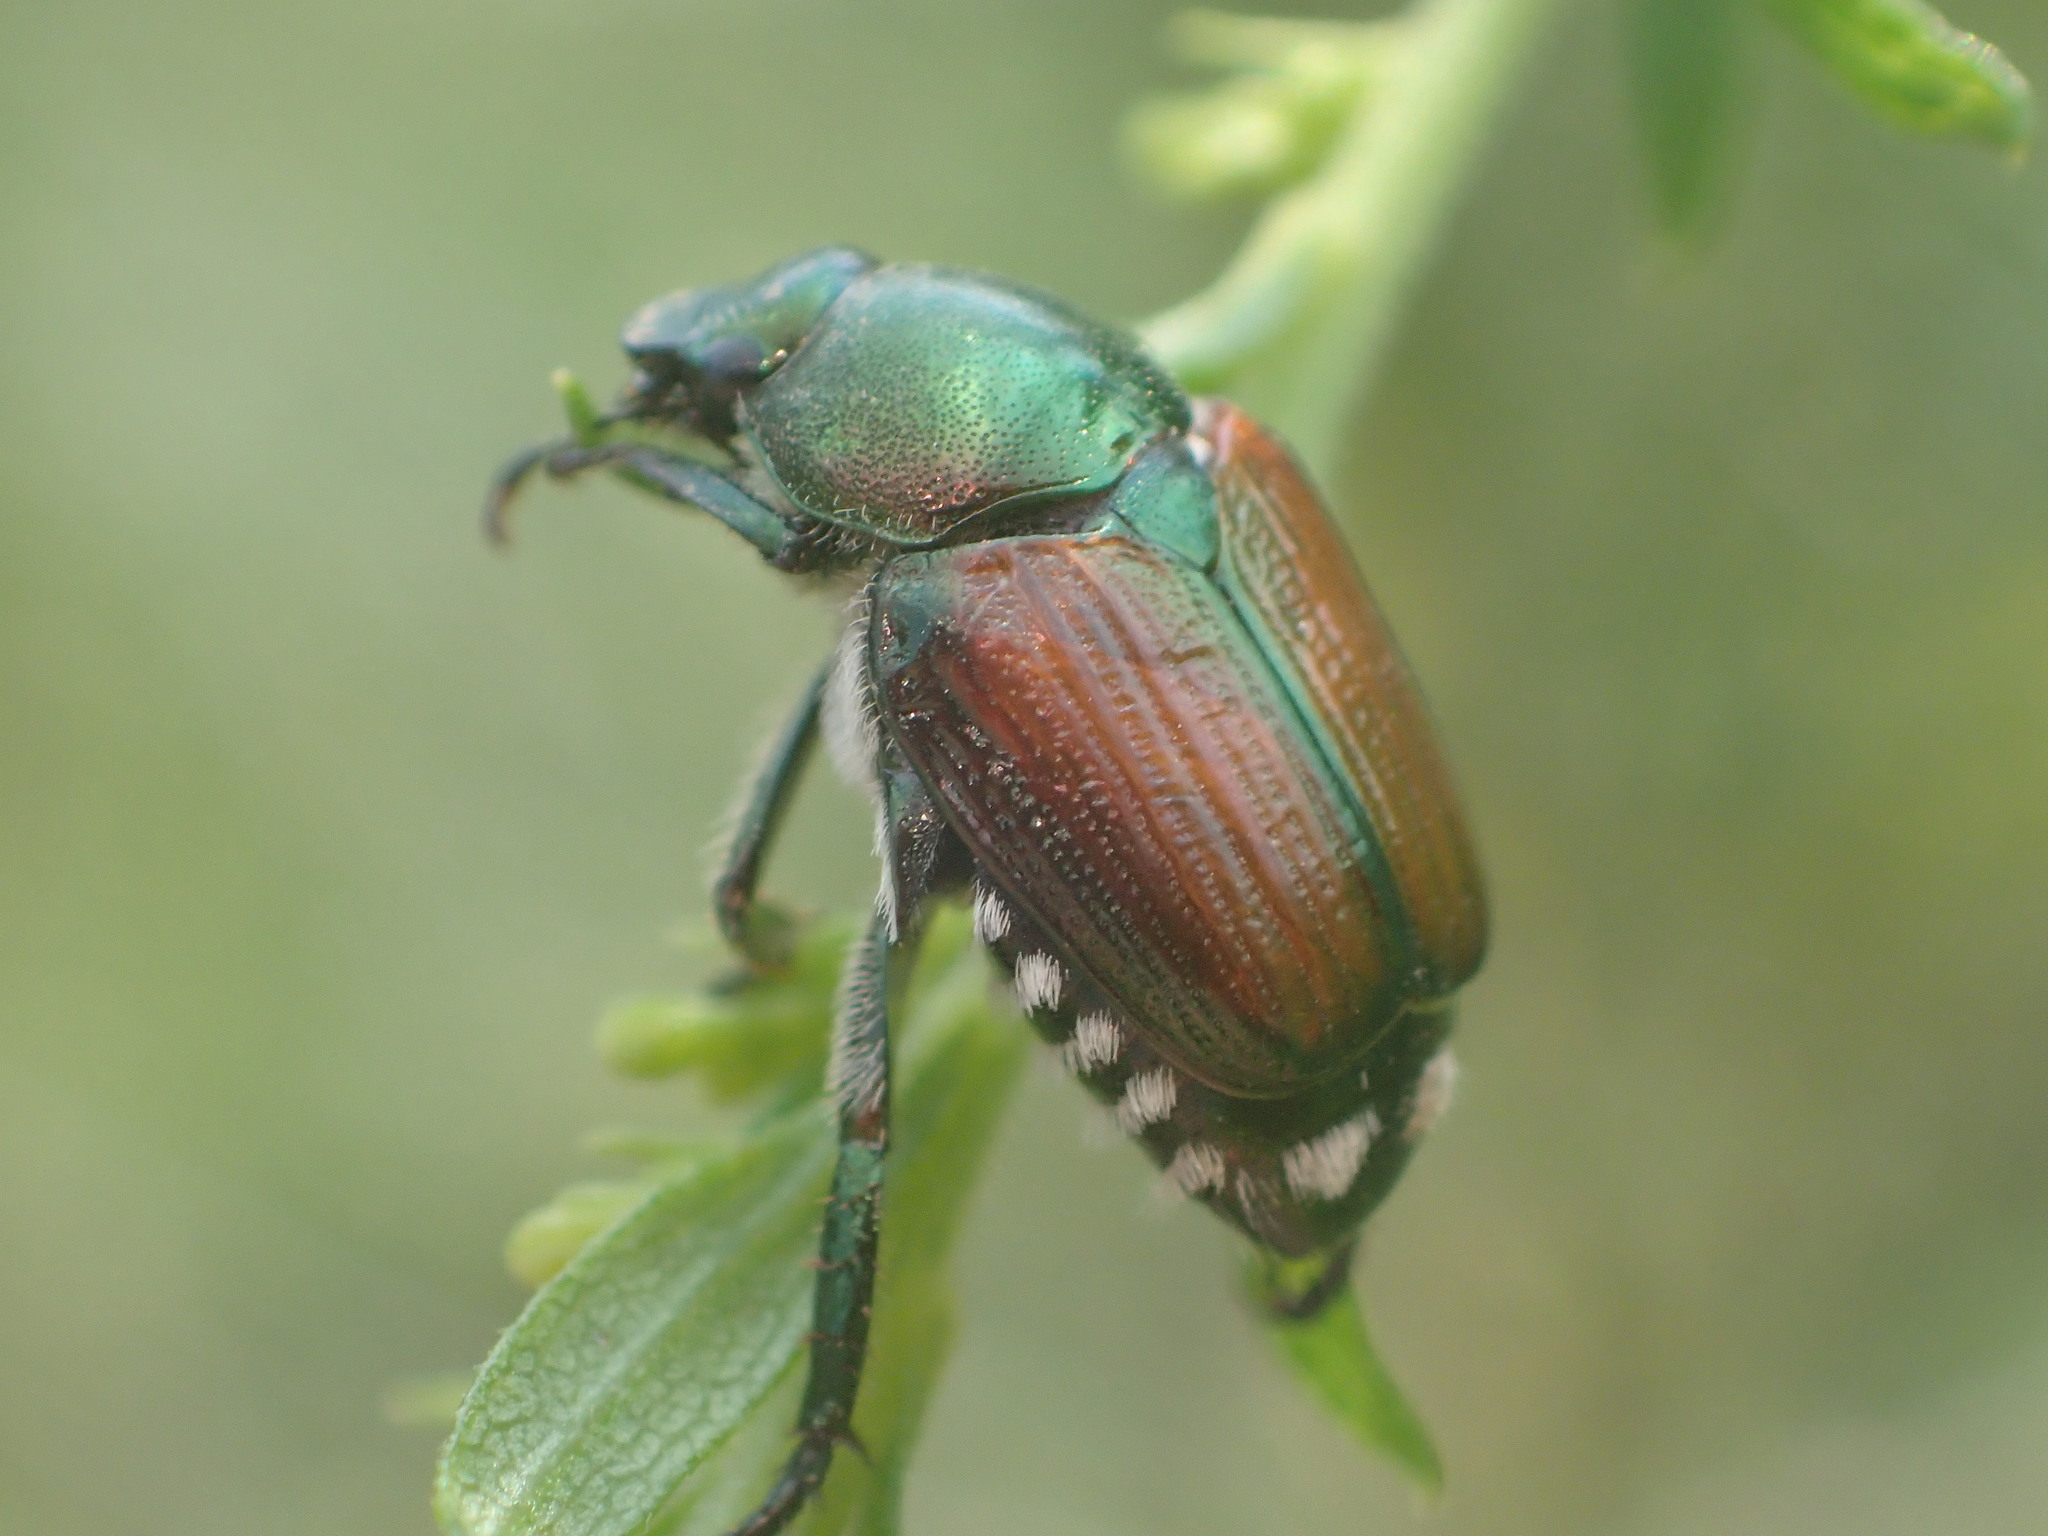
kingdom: Animalia
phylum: Arthropoda
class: Insecta
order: Coleoptera
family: Scarabaeidae
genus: Popillia
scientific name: Popillia japonica
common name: Japanese beetle
